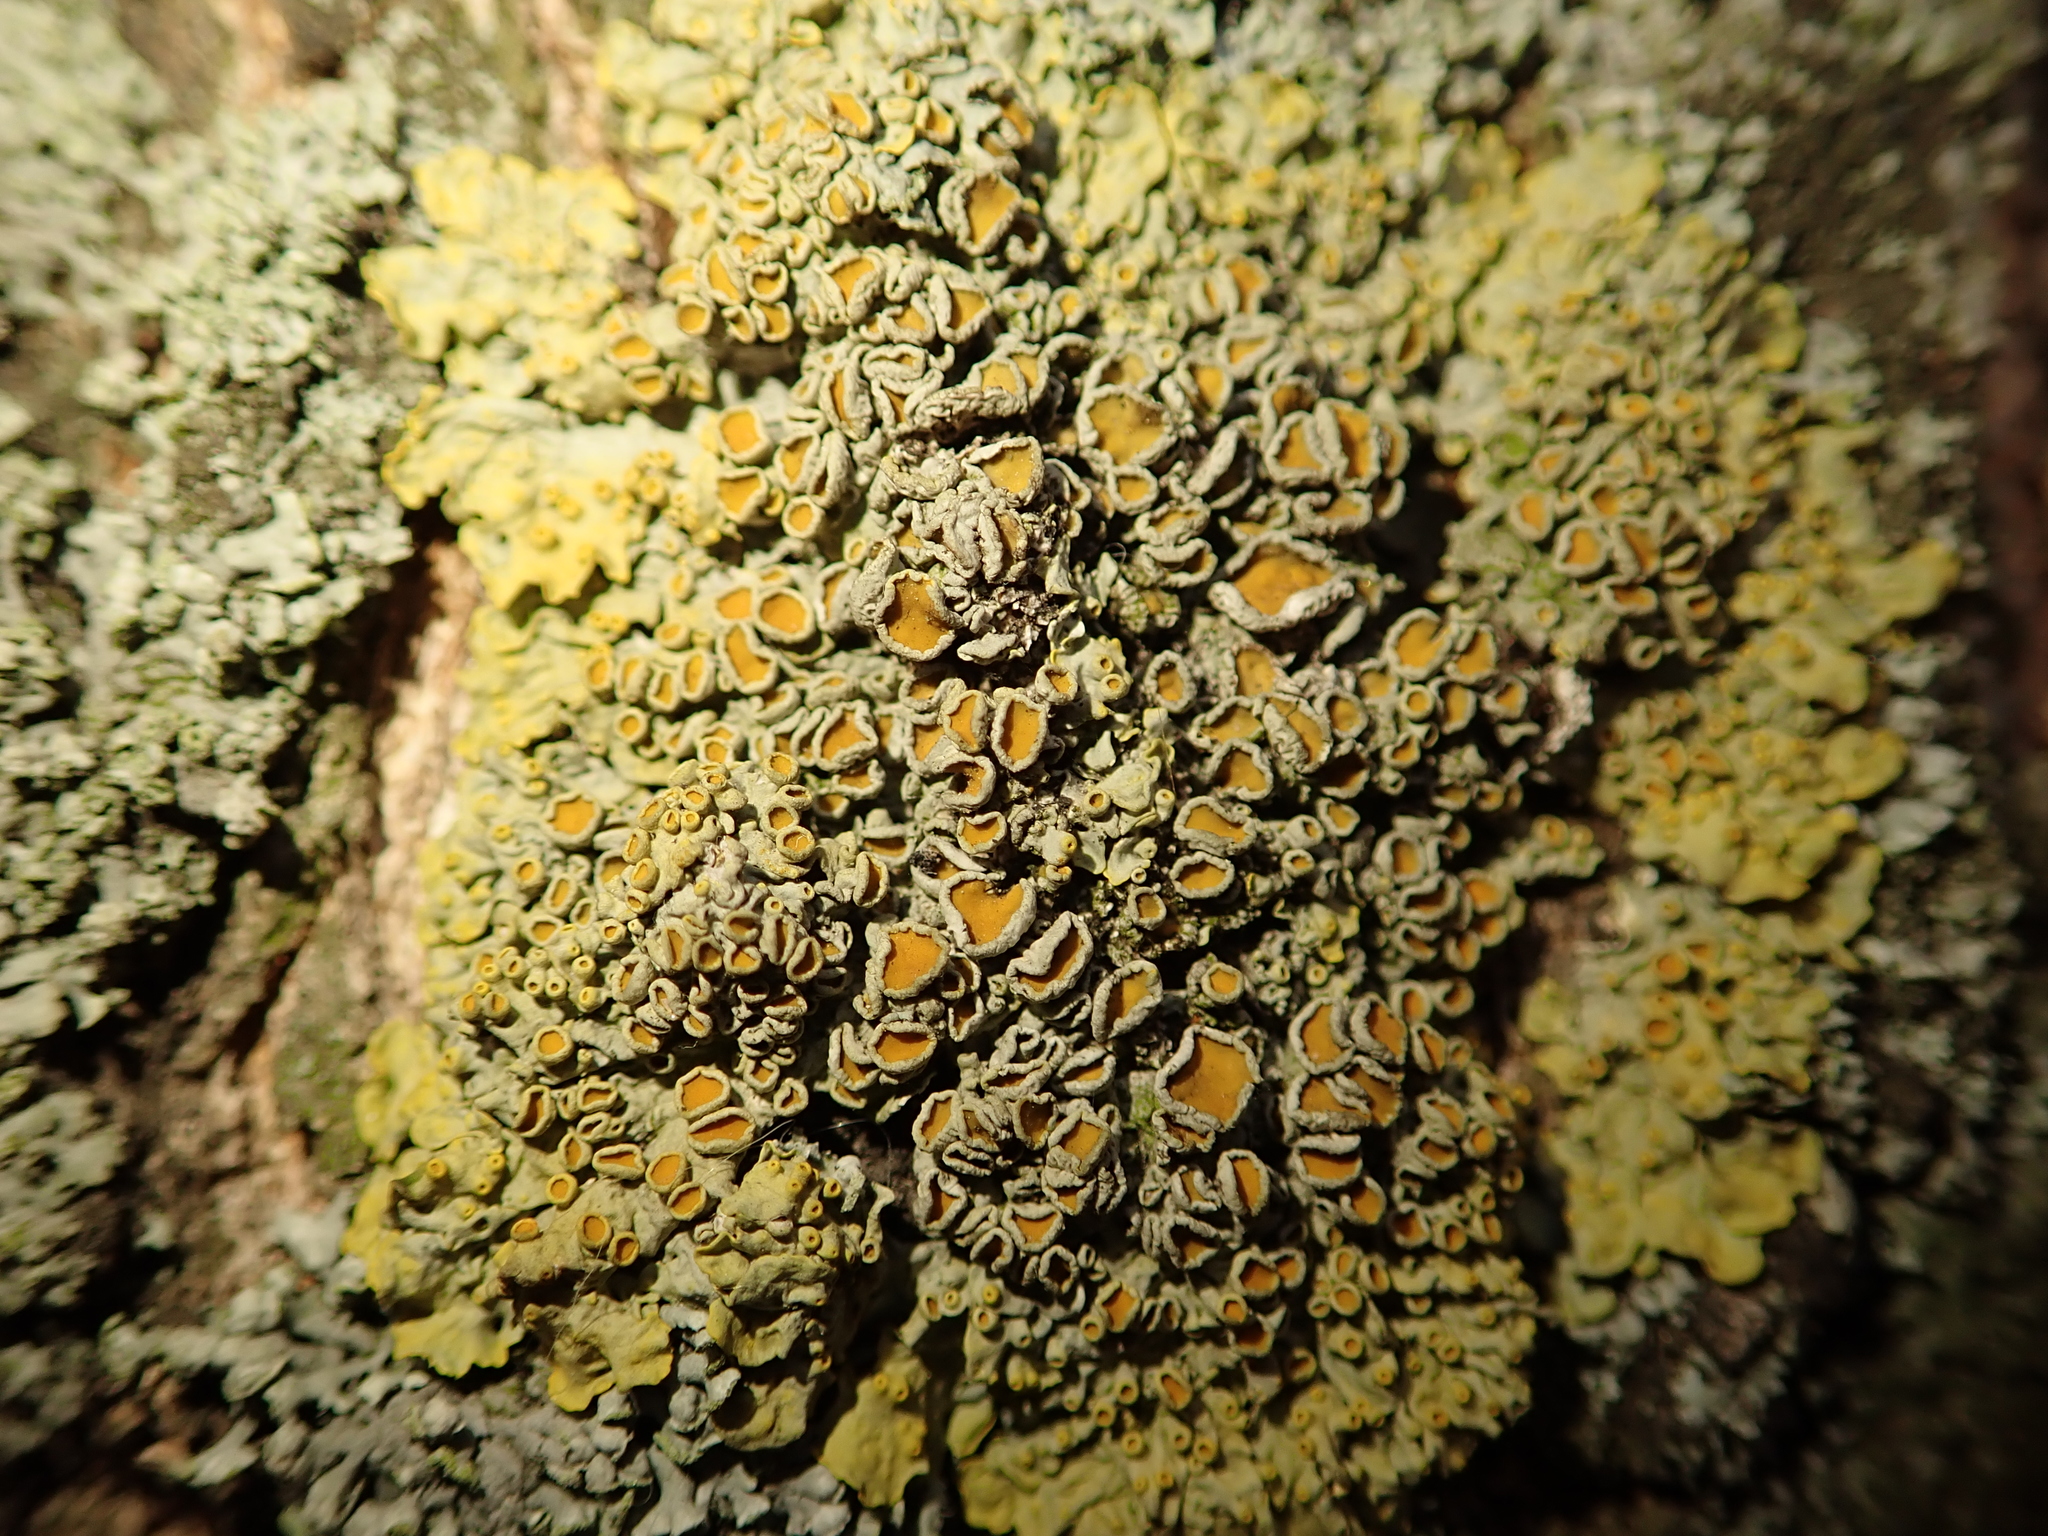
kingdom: Fungi
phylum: Ascomycota
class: Lecanoromycetes
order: Teloschistales
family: Teloschistaceae
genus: Xanthoria
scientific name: Xanthoria parietina
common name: Common orange lichen
